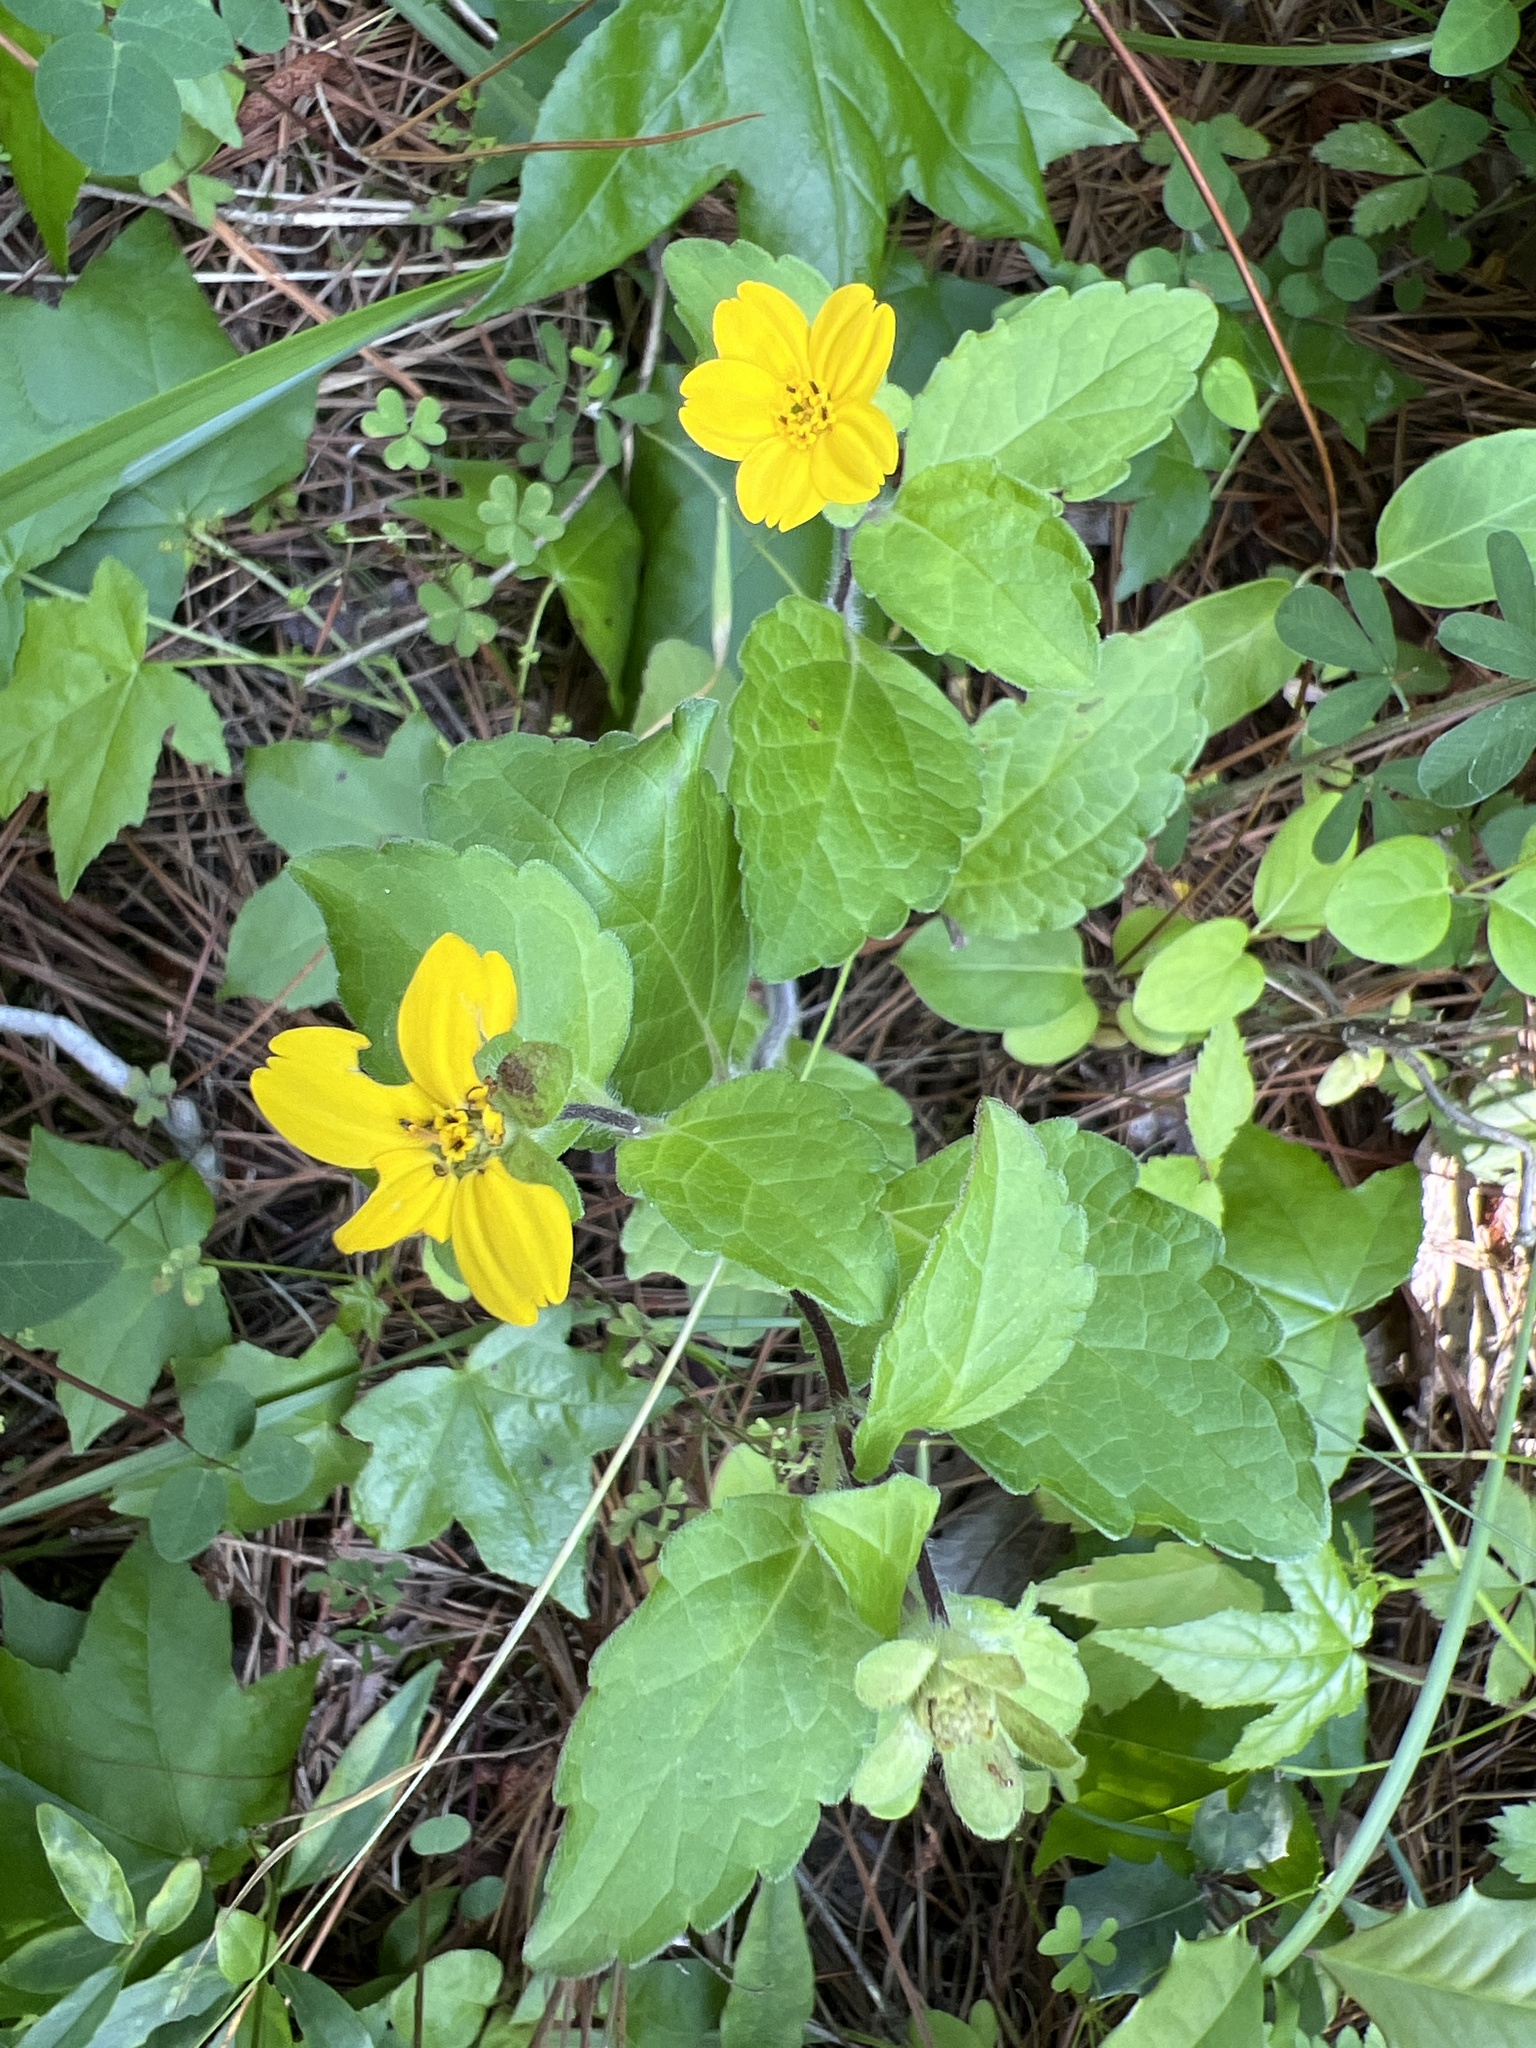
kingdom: Plantae
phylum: Tracheophyta
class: Magnoliopsida
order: Asterales
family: Asteraceae
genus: Chrysogonum
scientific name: Chrysogonum virginianum
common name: Golden-knee
